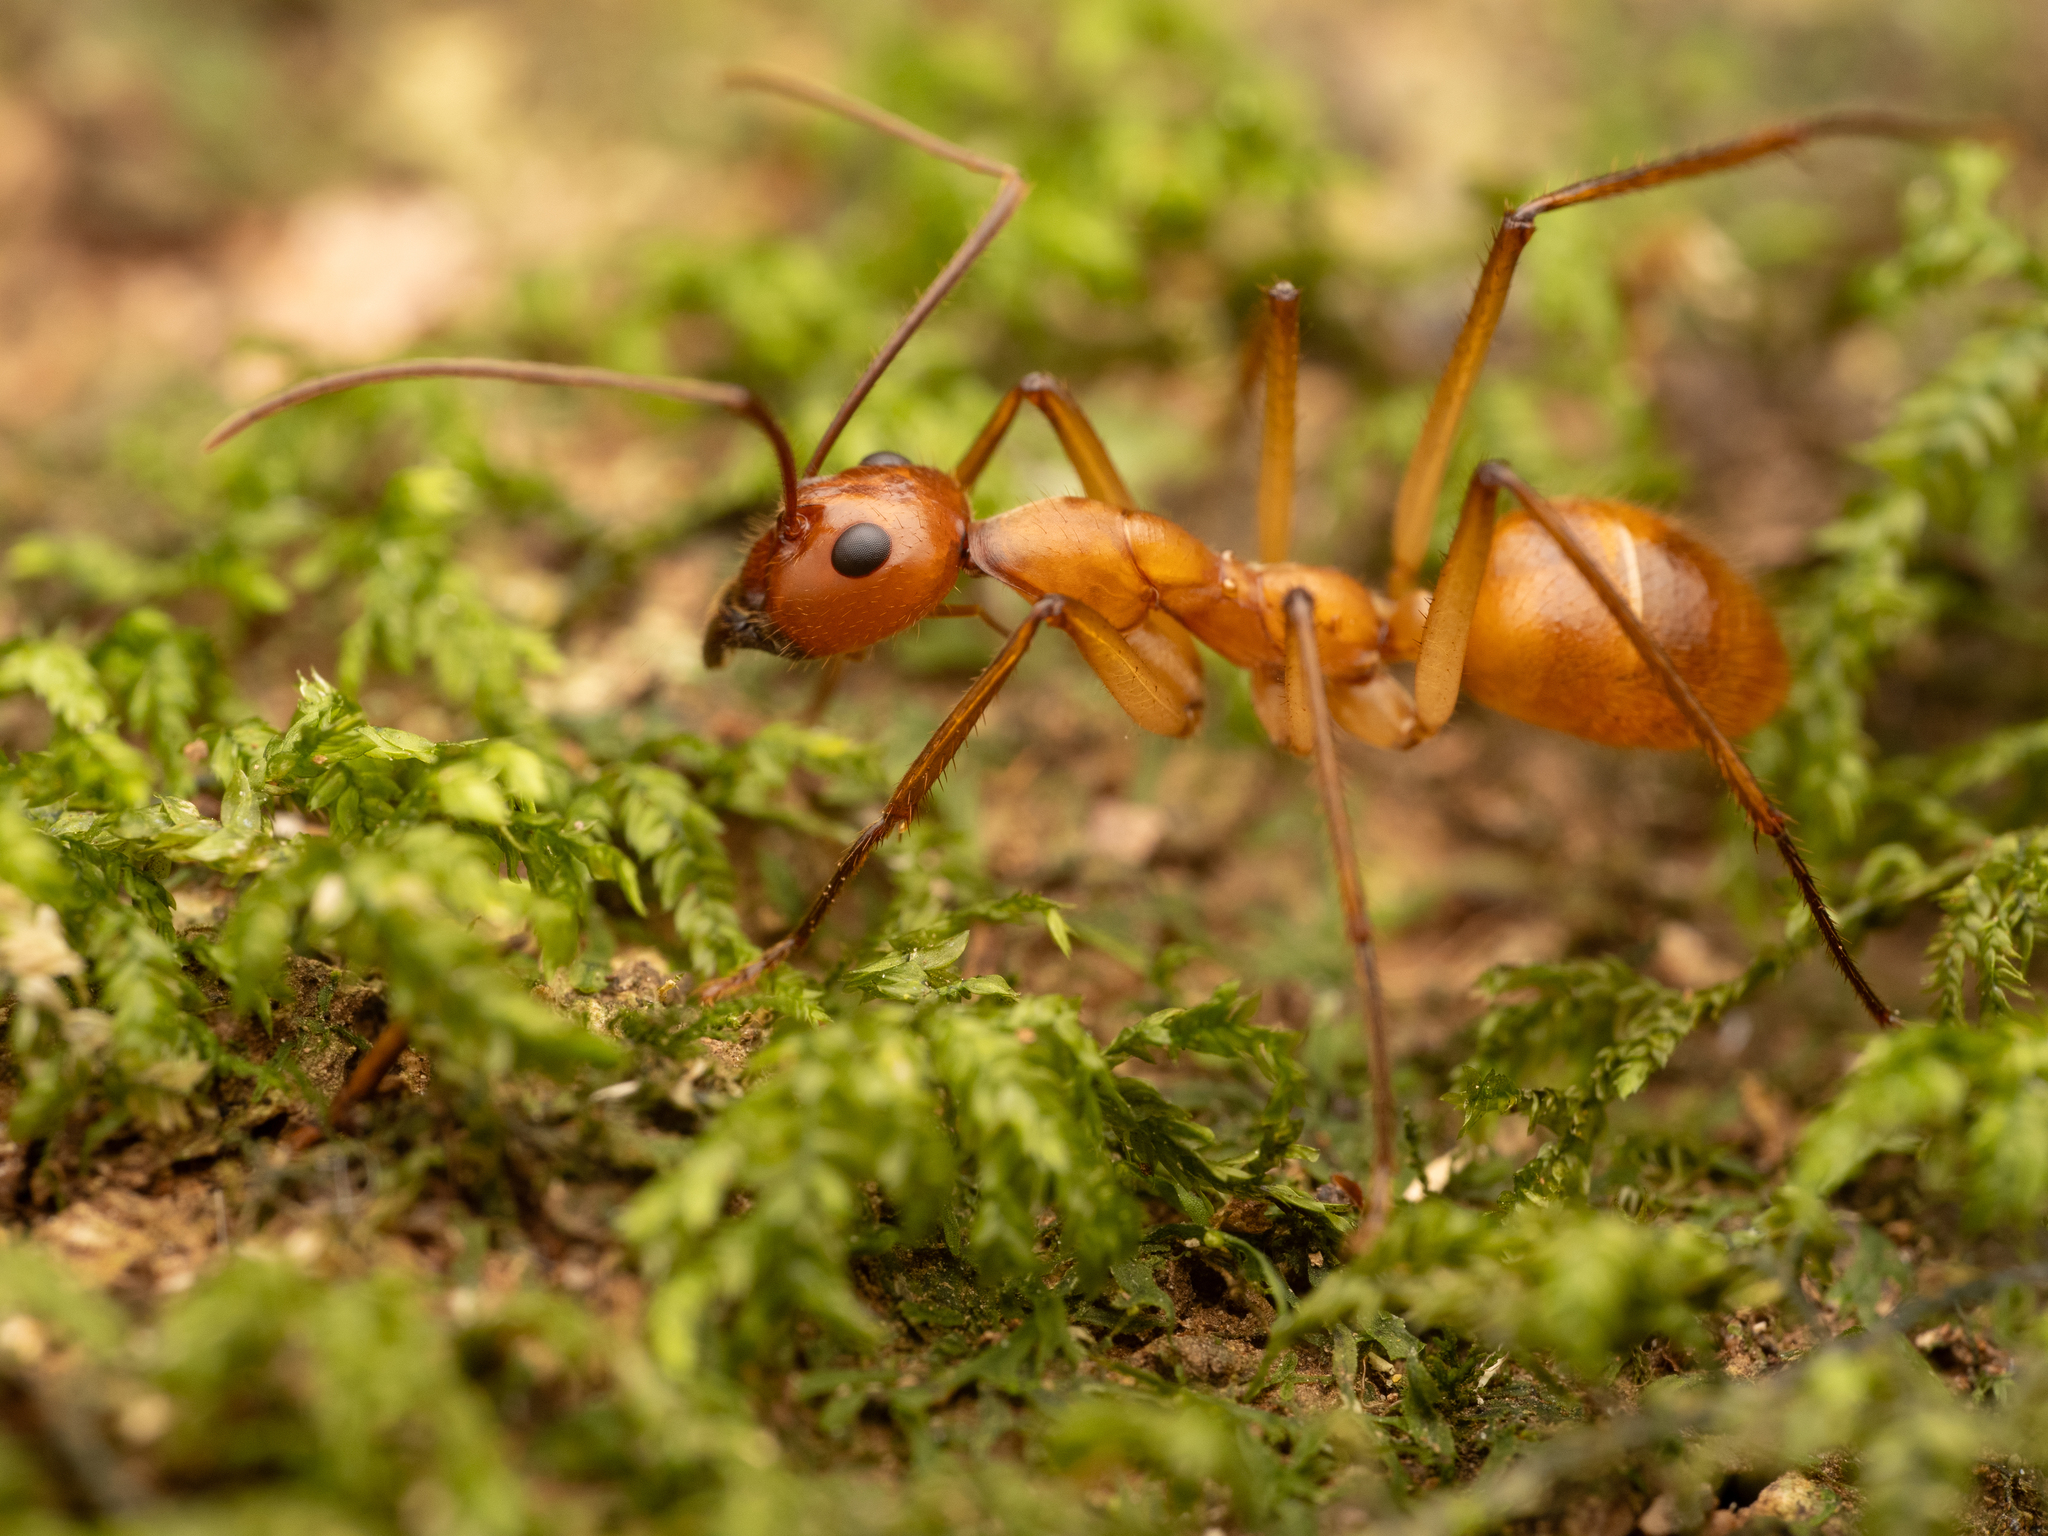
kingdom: Animalia
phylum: Arthropoda
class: Insecta
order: Hymenoptera
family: Formicidae
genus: Notostigma
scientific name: Notostigma foreli
